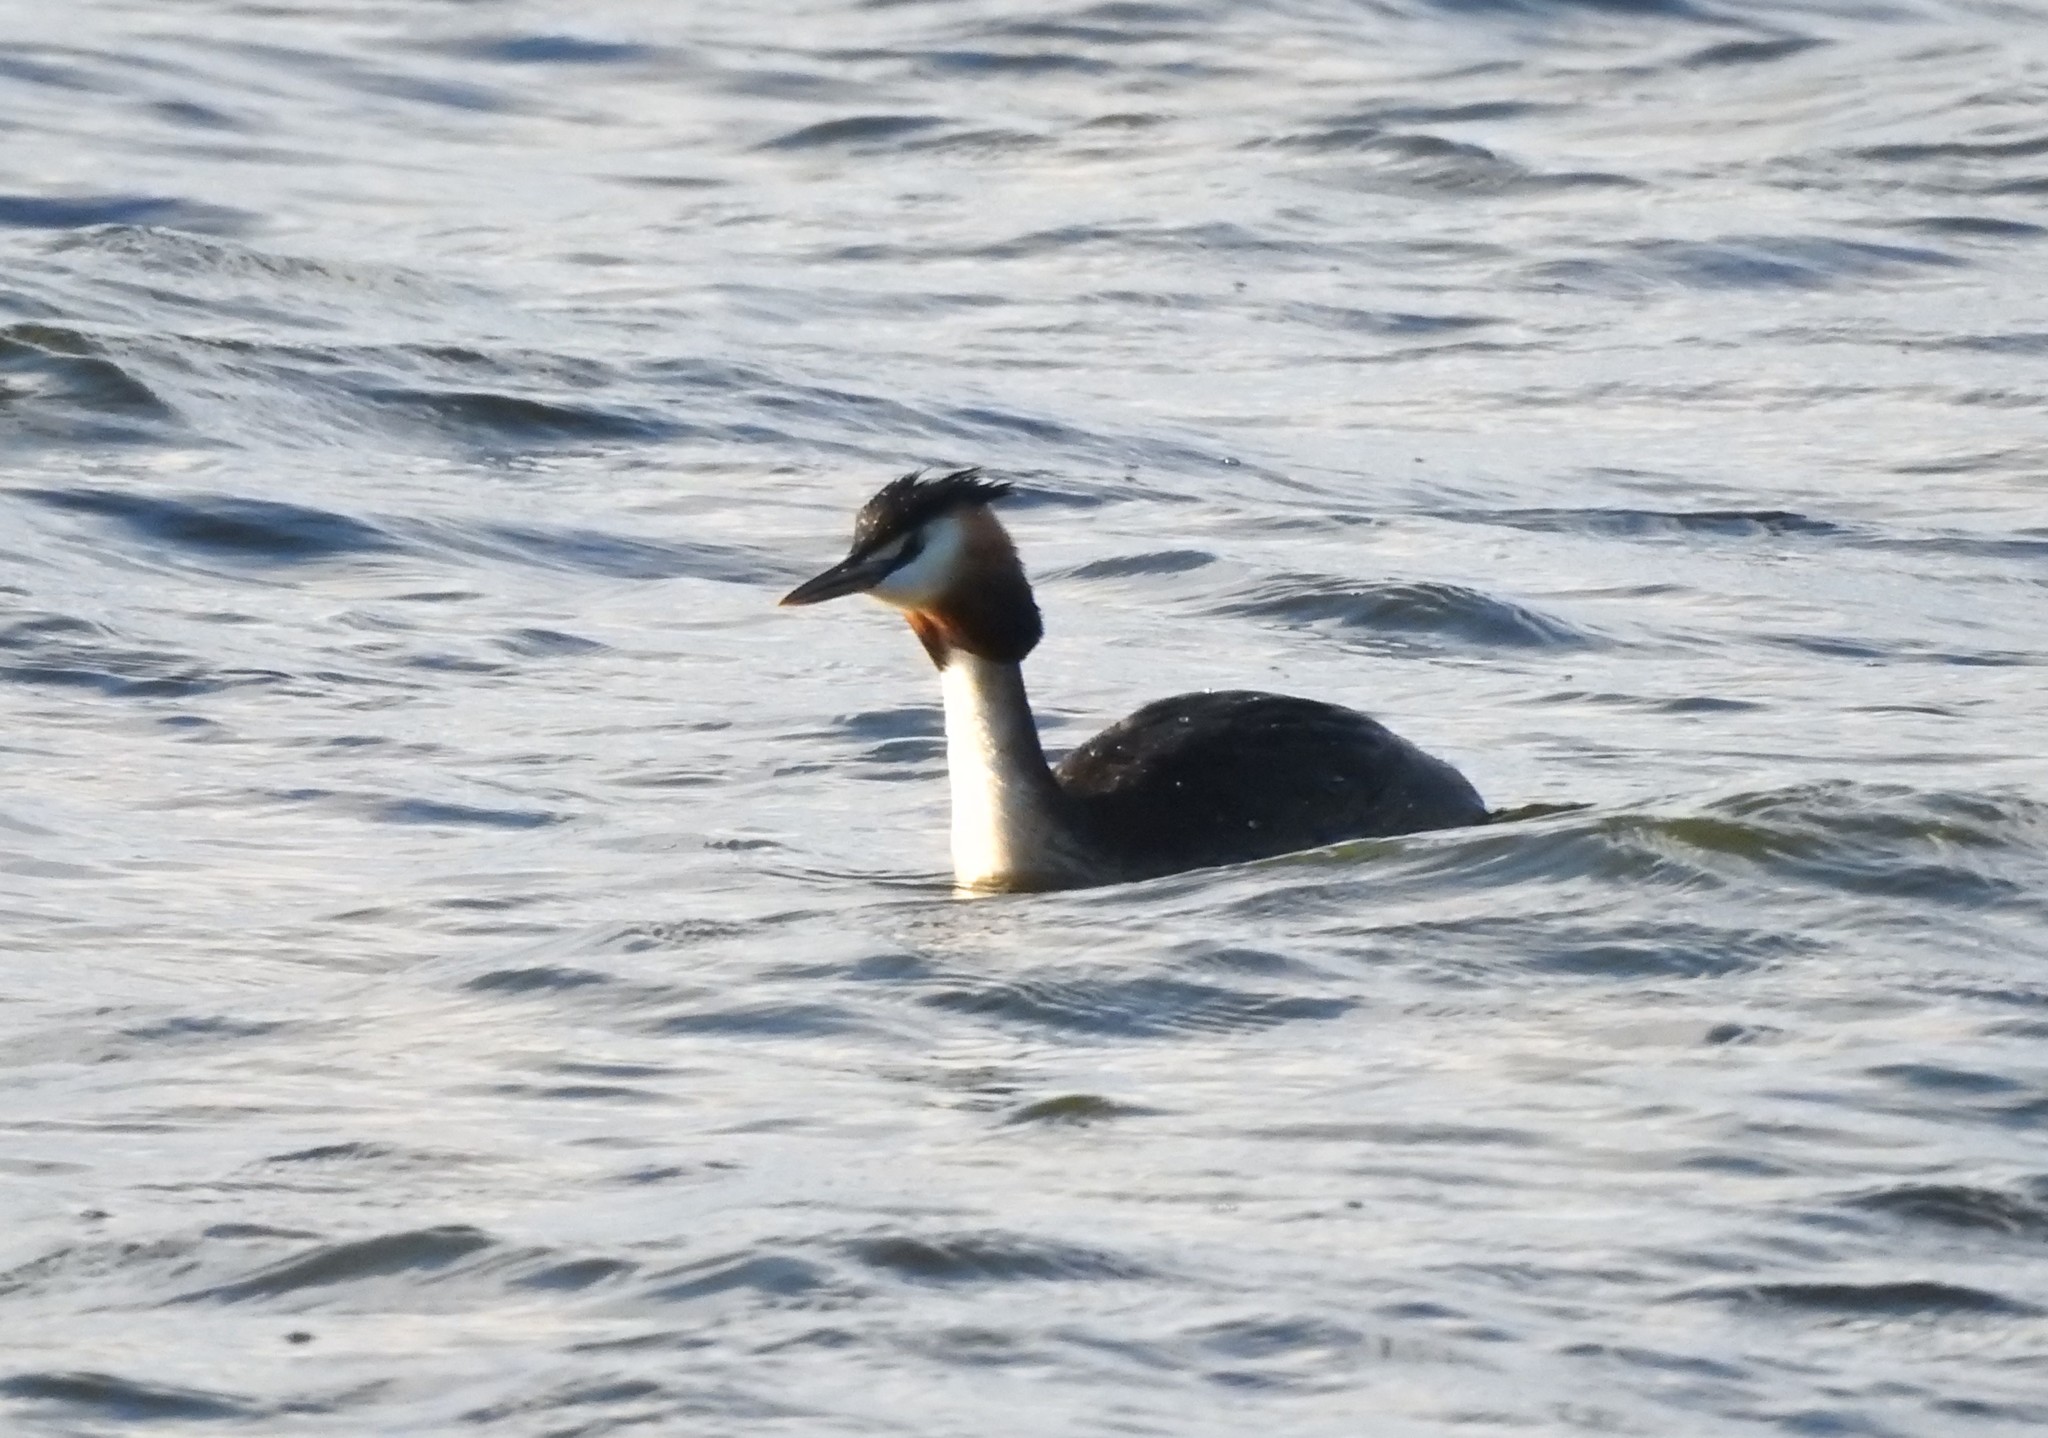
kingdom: Animalia
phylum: Chordata
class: Aves
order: Podicipediformes
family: Podicipedidae
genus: Podiceps
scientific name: Podiceps cristatus
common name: Great crested grebe
